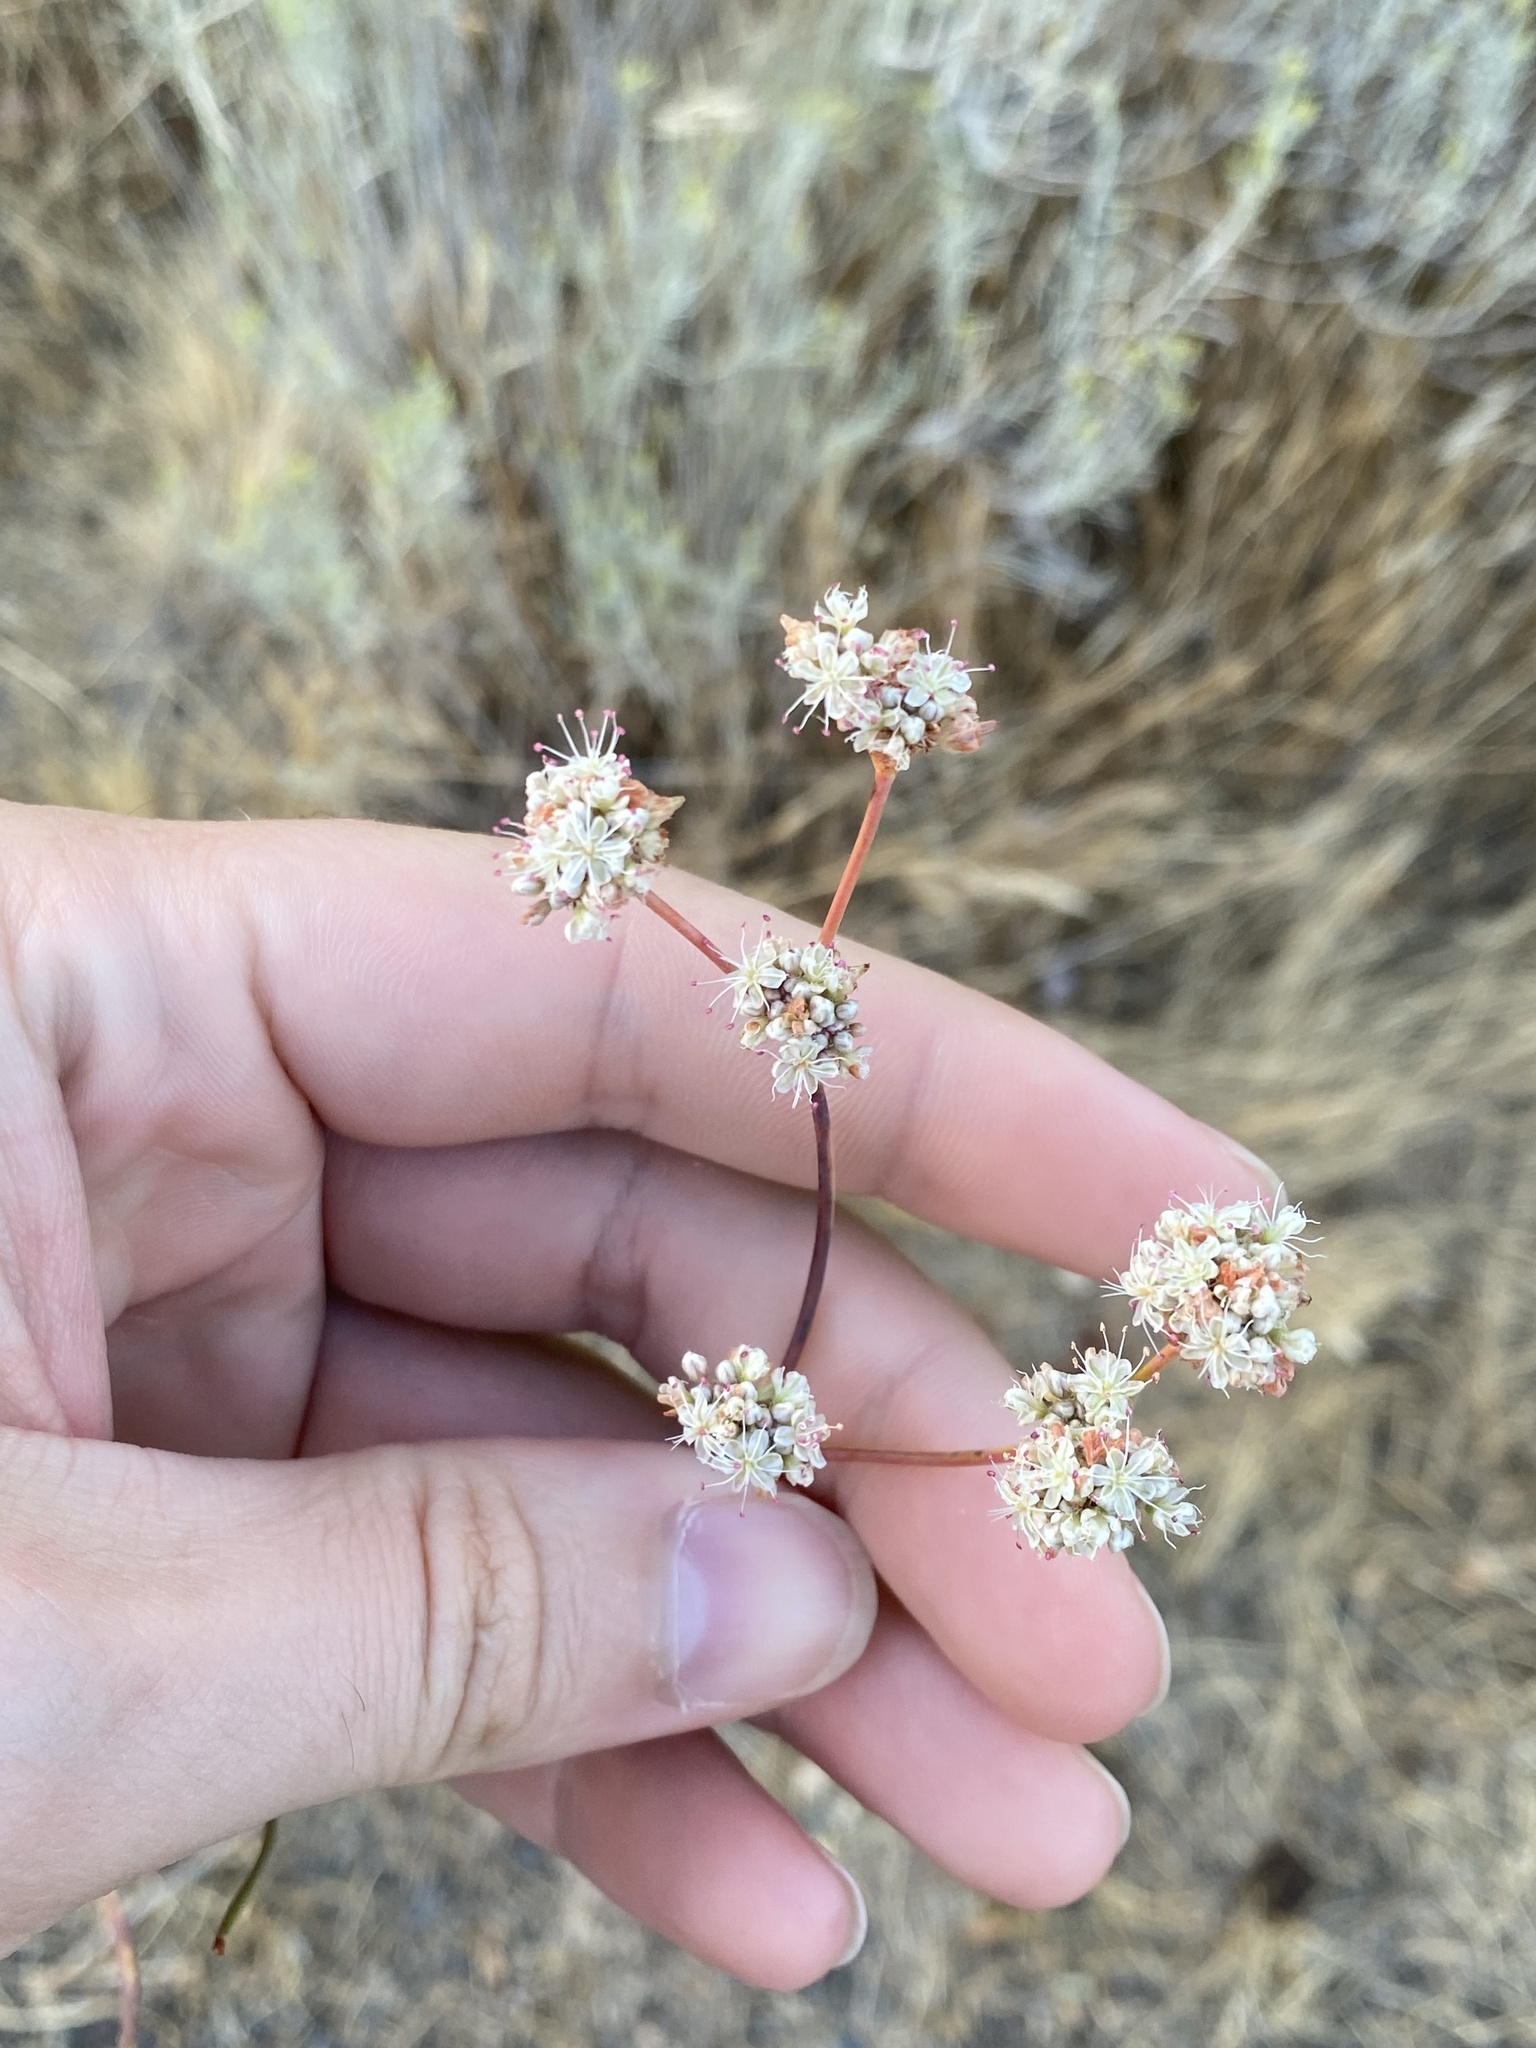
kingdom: Plantae
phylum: Tracheophyta
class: Magnoliopsida
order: Caryophyllales
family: Polygonaceae
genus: Eriogonum
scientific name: Eriogonum elatum
